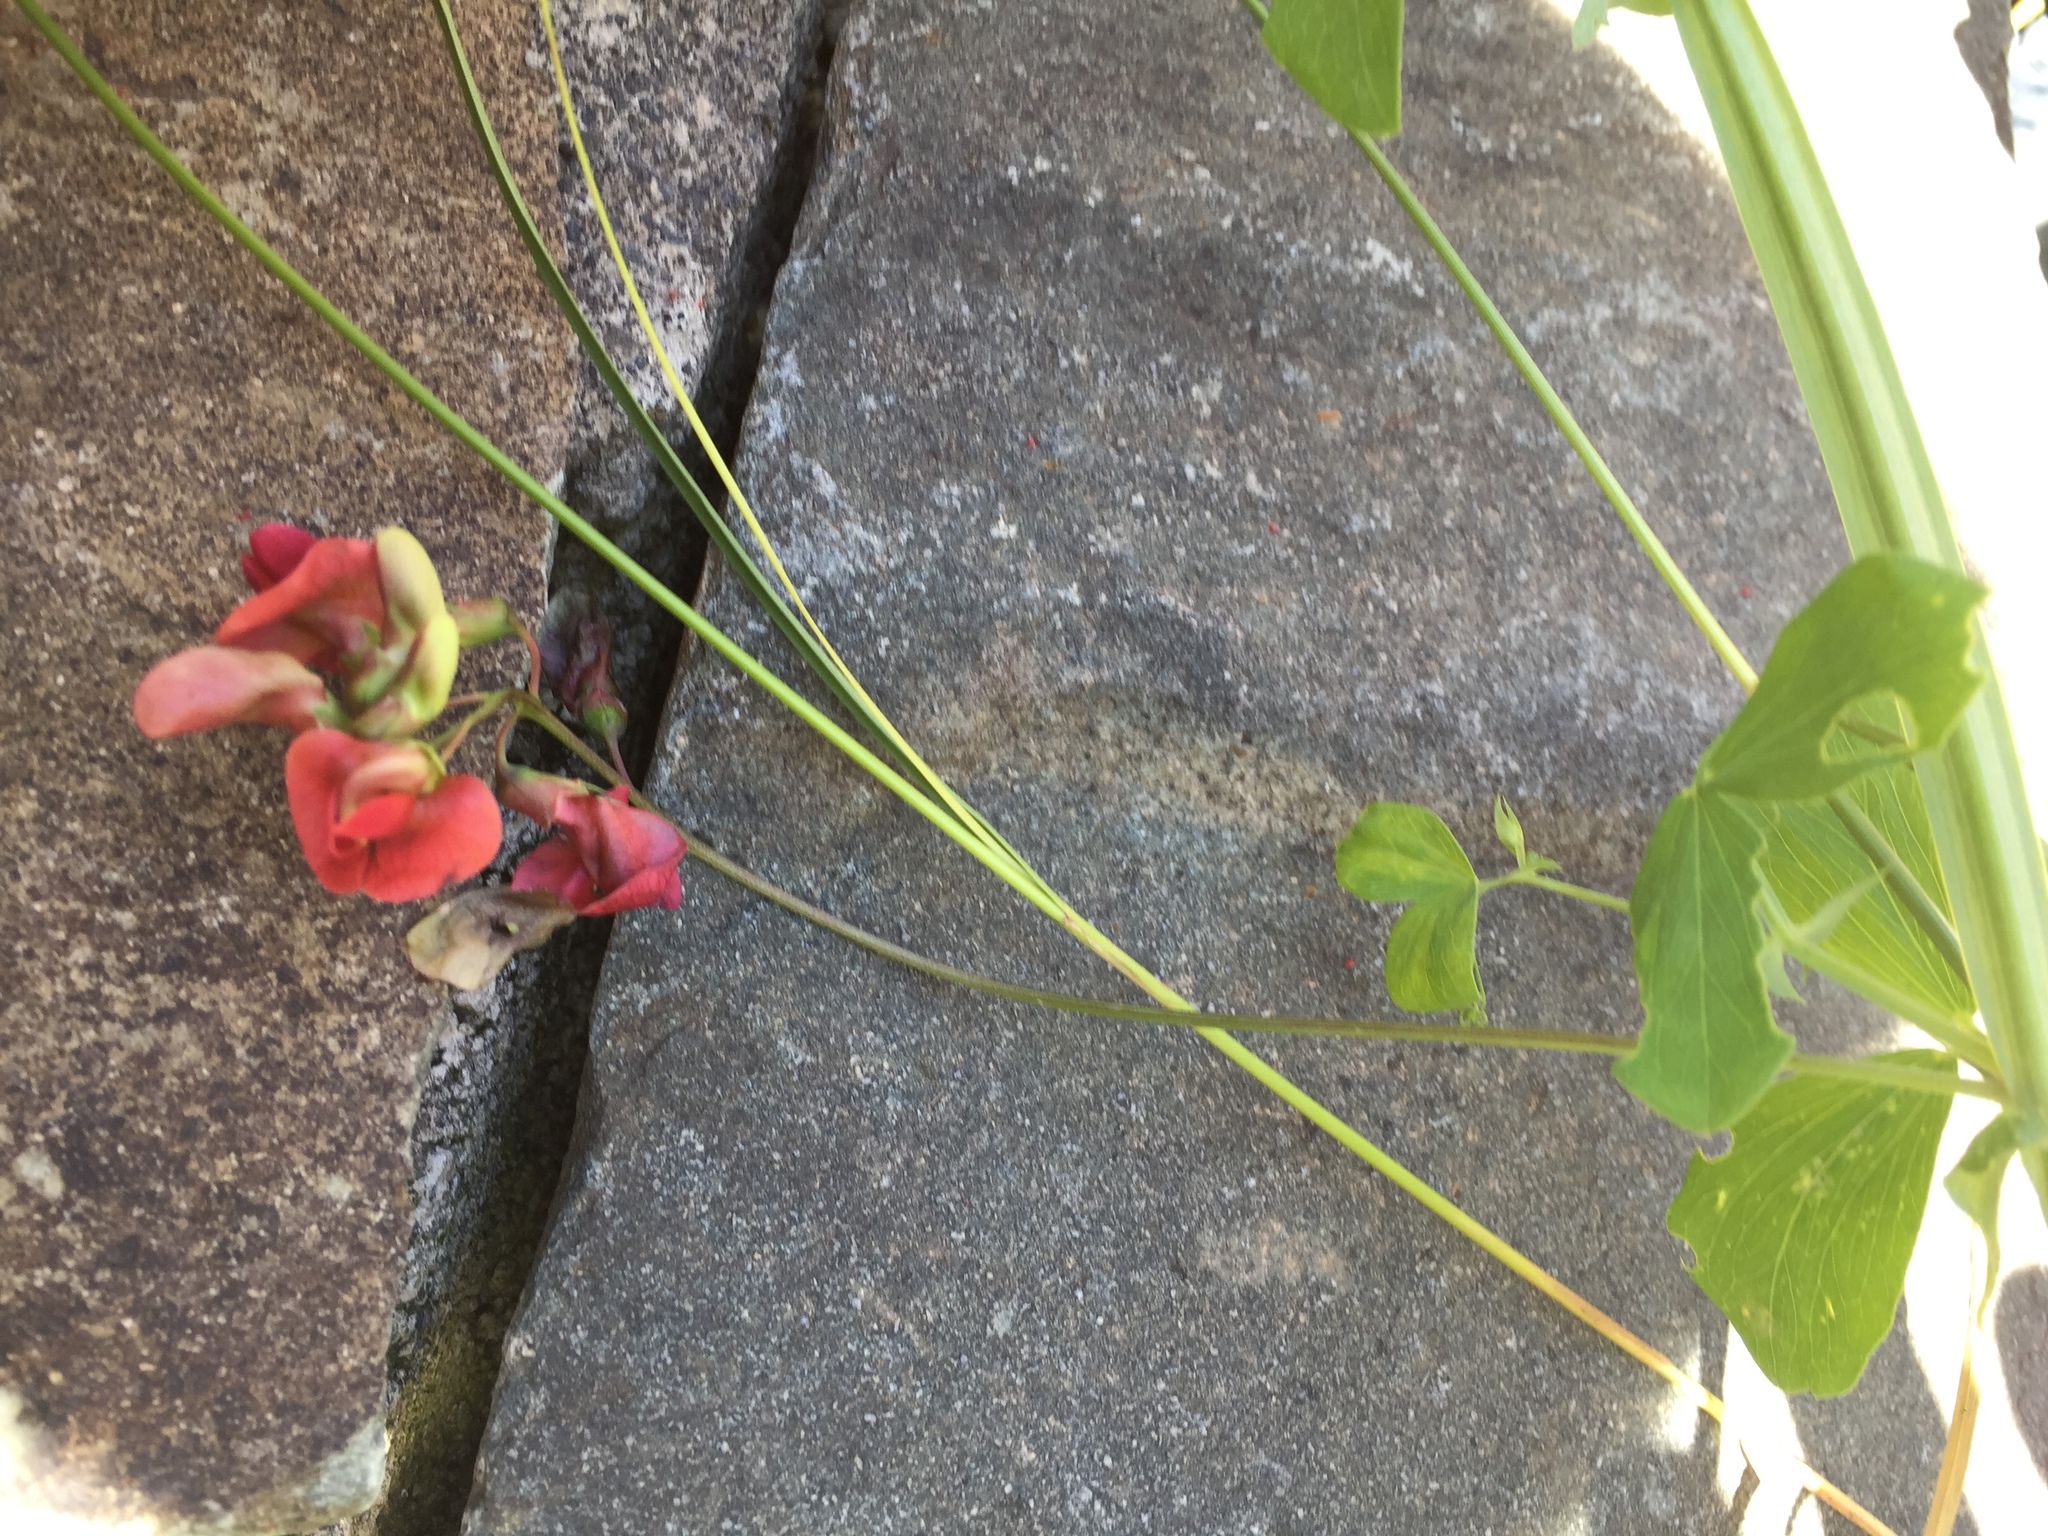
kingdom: Plantae
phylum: Tracheophyta
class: Magnoliopsida
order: Fabales
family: Fabaceae
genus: Lathyrus
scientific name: Lathyrus miniatus
